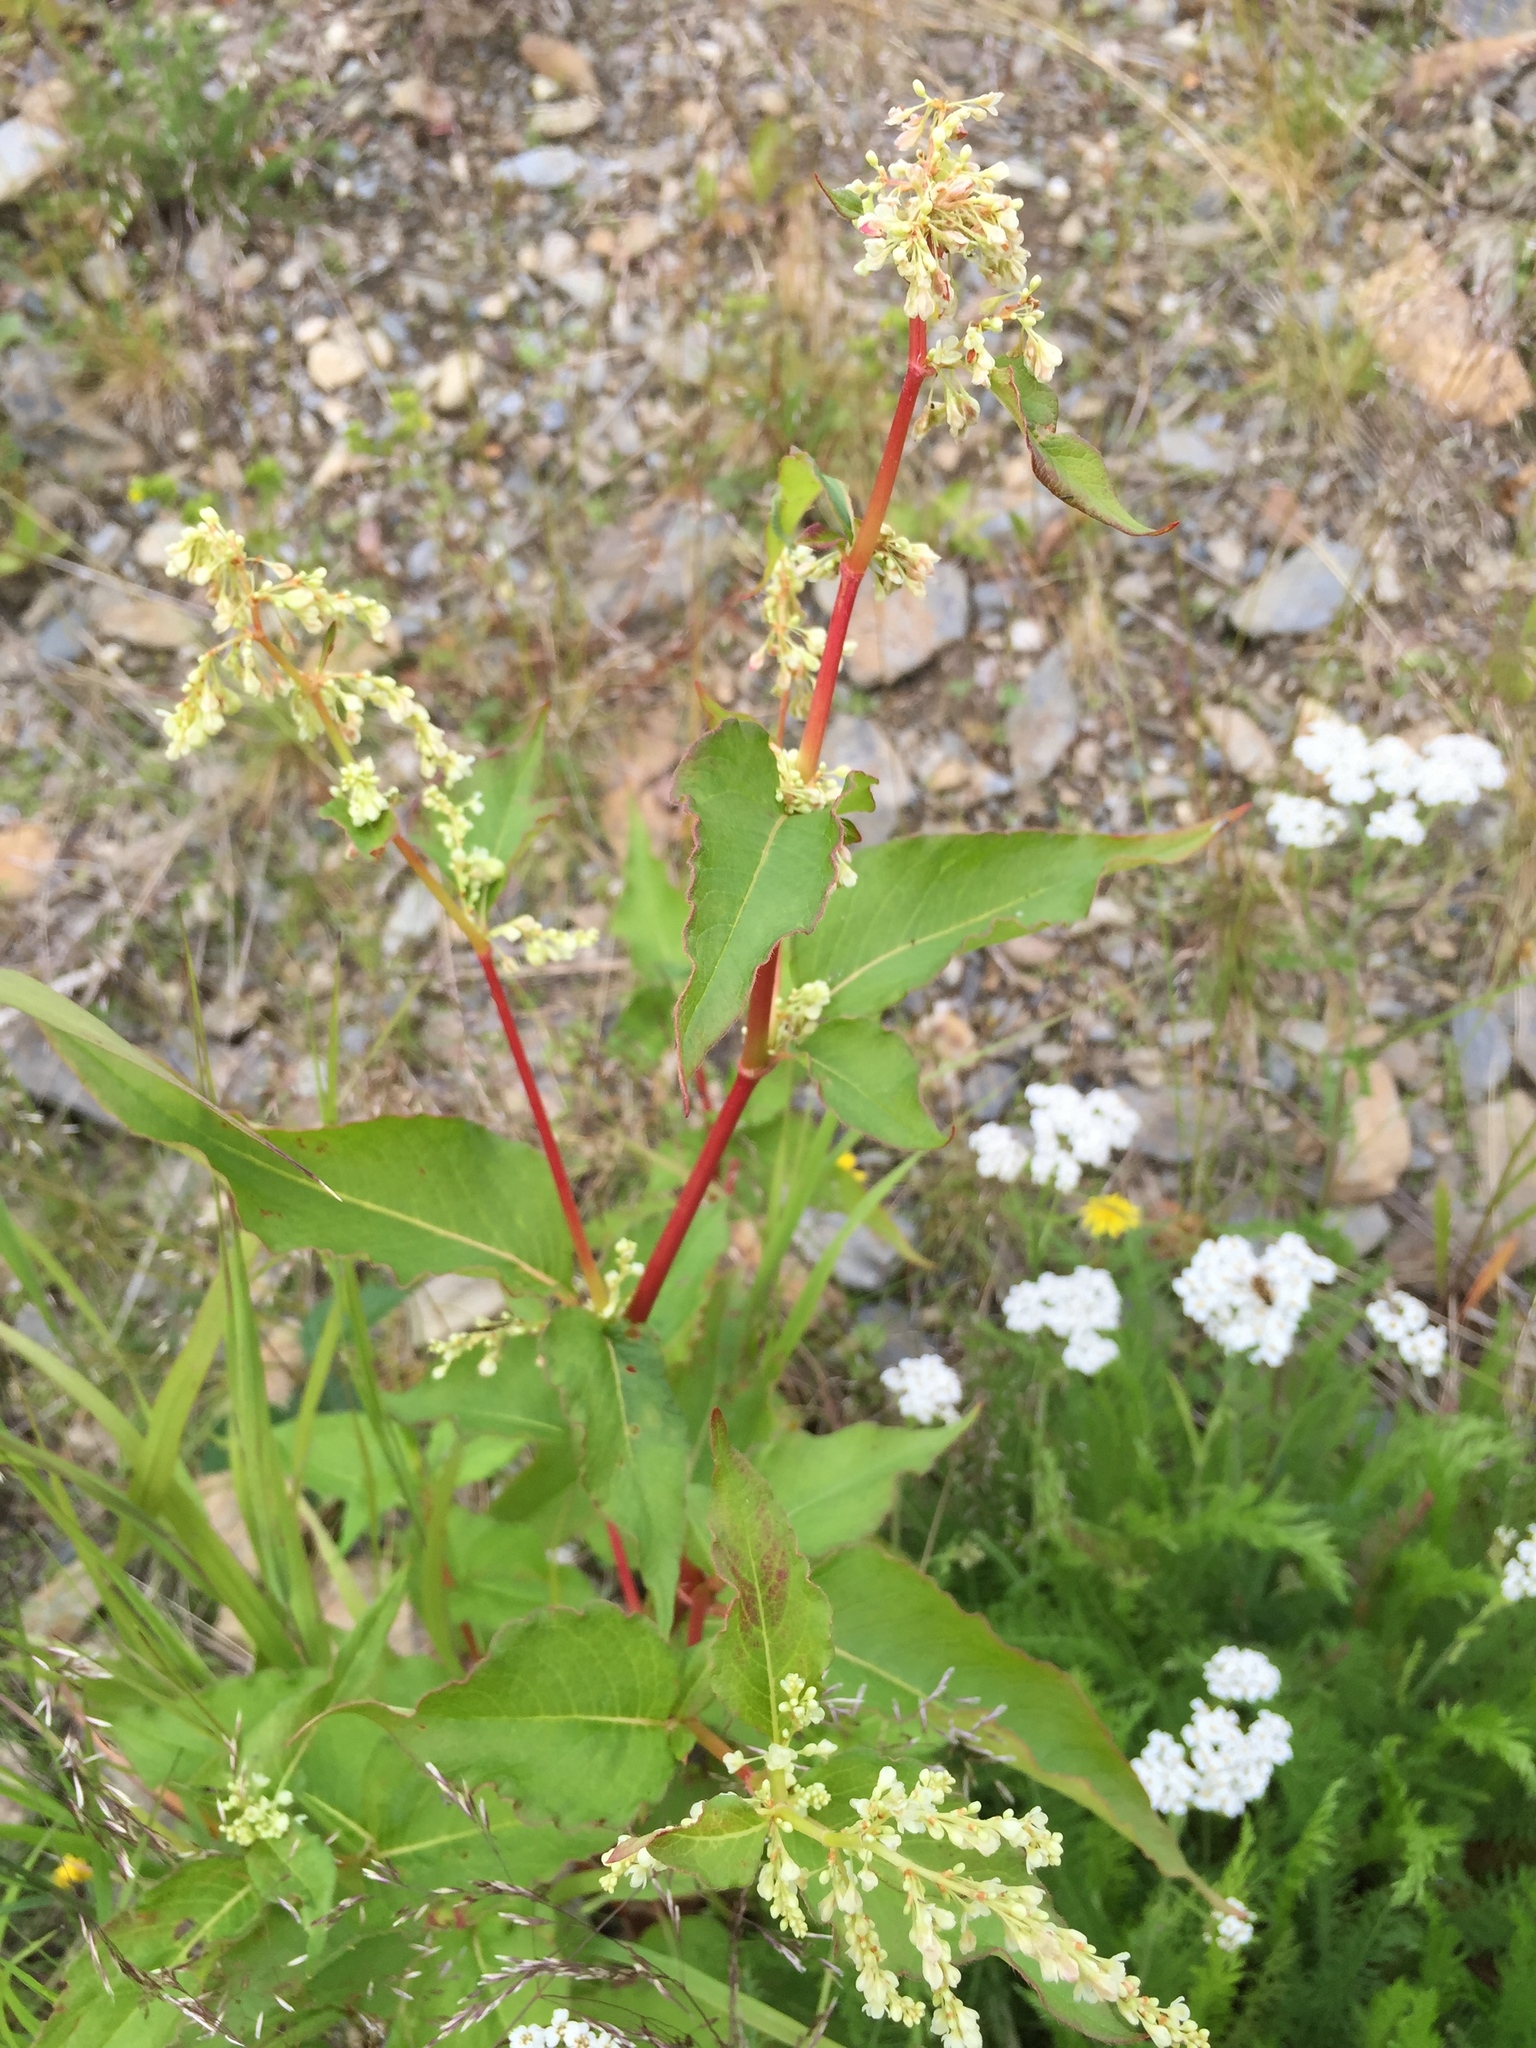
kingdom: Plantae
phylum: Tracheophyta
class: Magnoliopsida
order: Caryophyllales
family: Polygonaceae
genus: Koenigia
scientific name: Koenigia lapathifolia
